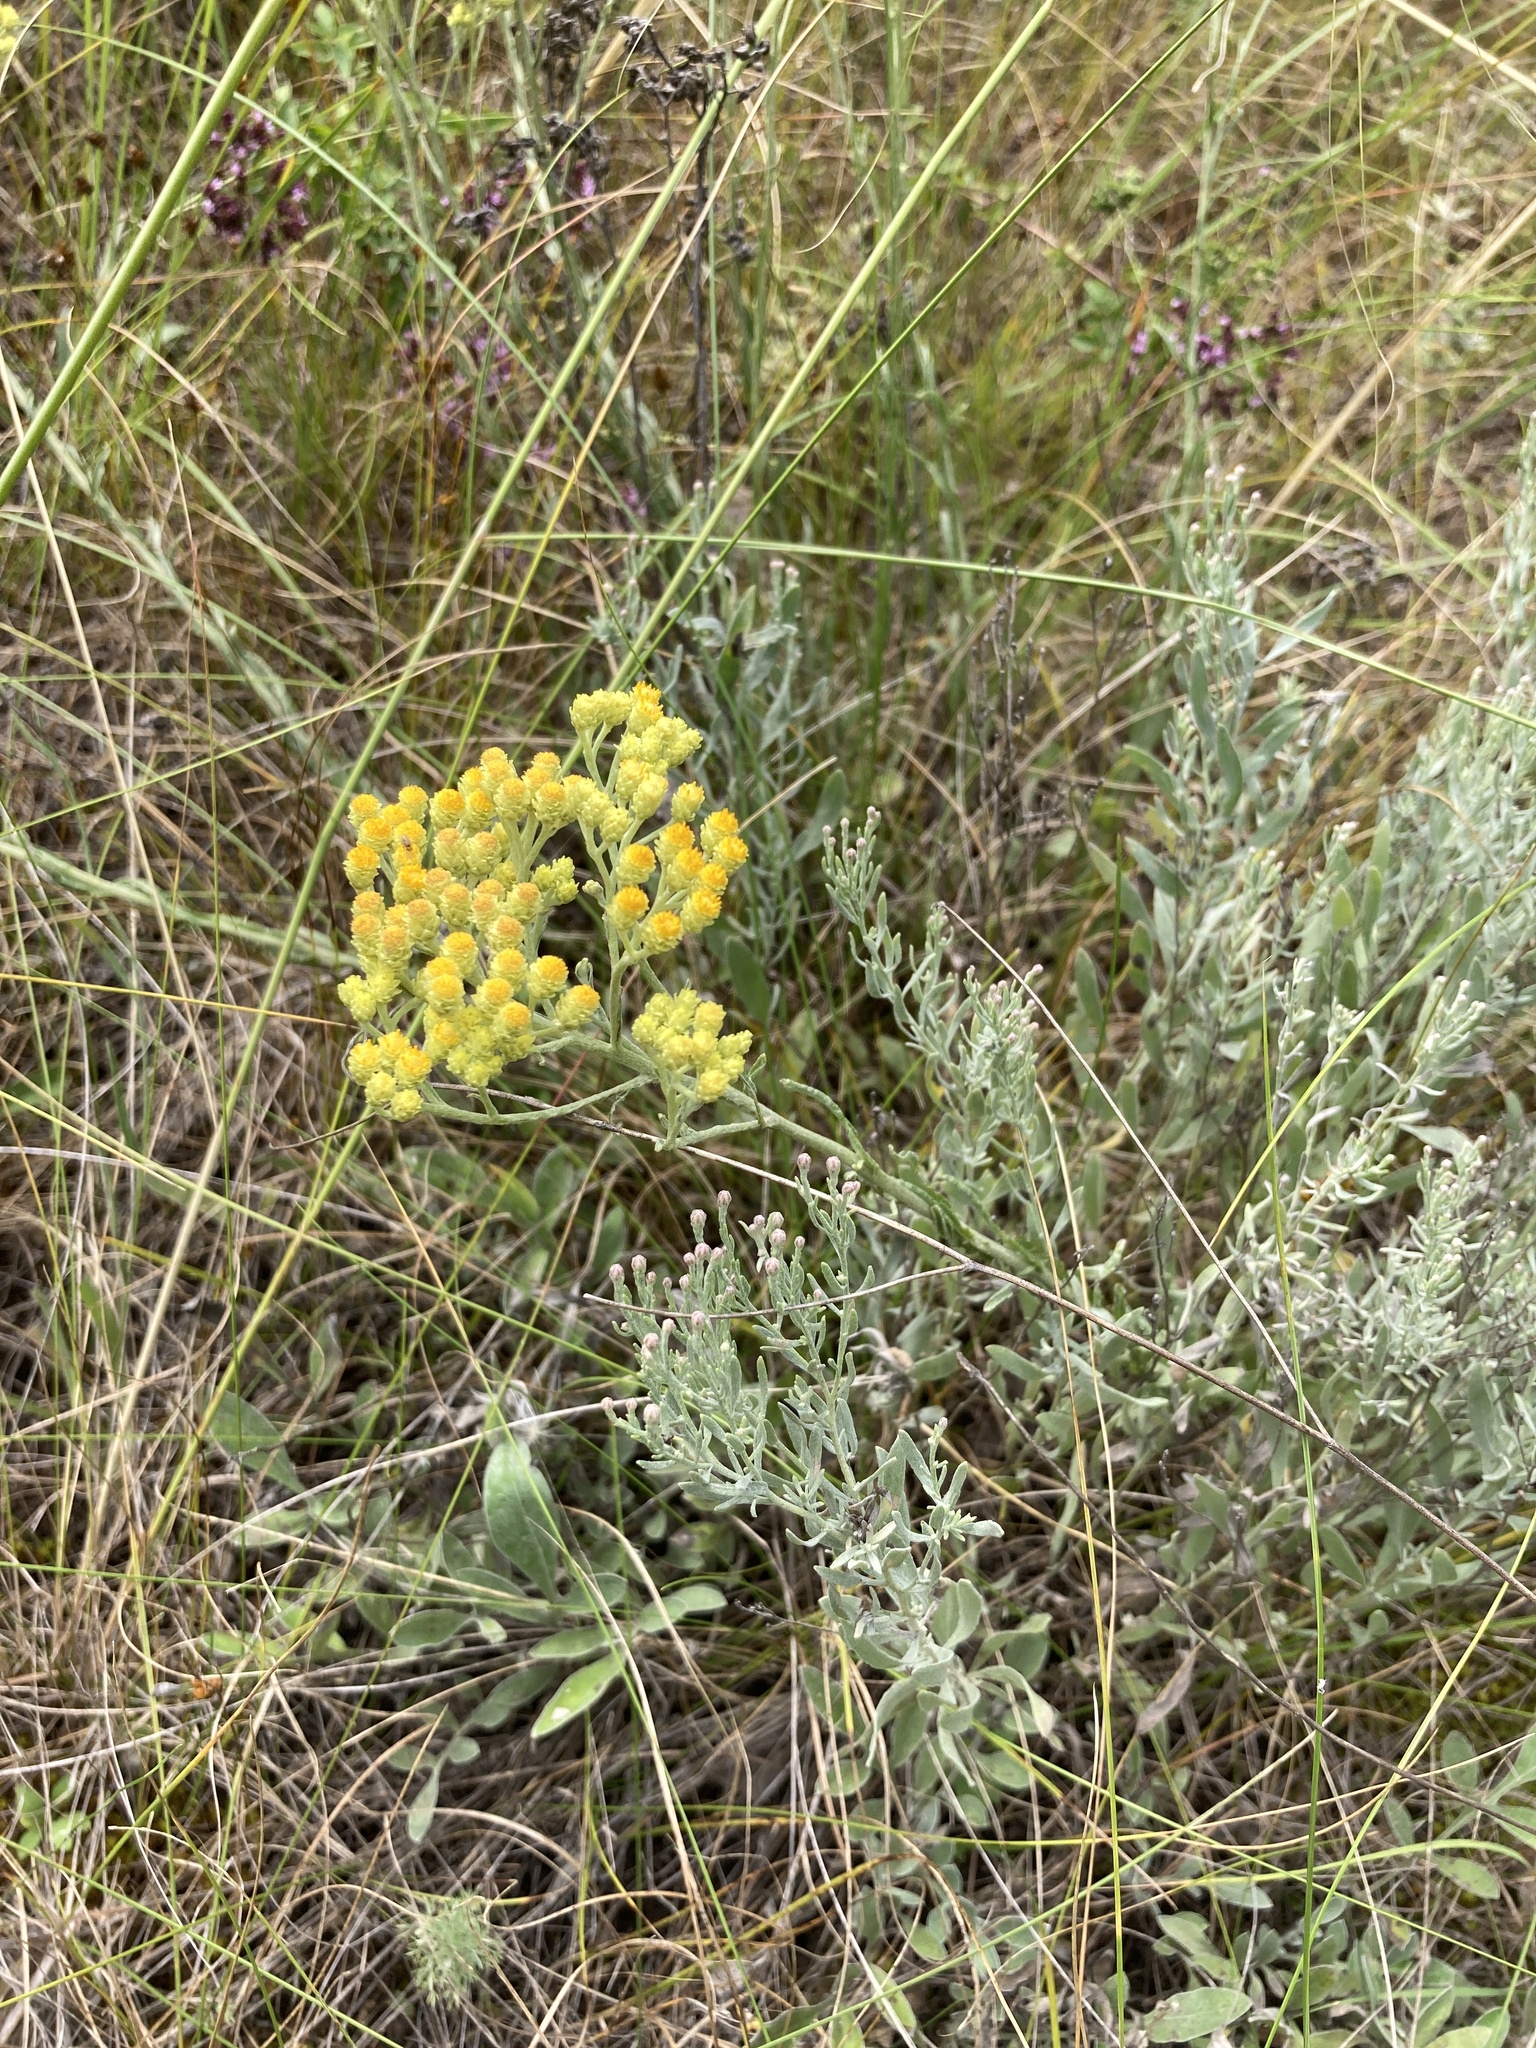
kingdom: Plantae
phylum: Tracheophyta
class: Magnoliopsida
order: Asterales
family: Asteraceae
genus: Helichrysum
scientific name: Helichrysum arenarium
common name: Strawflower
